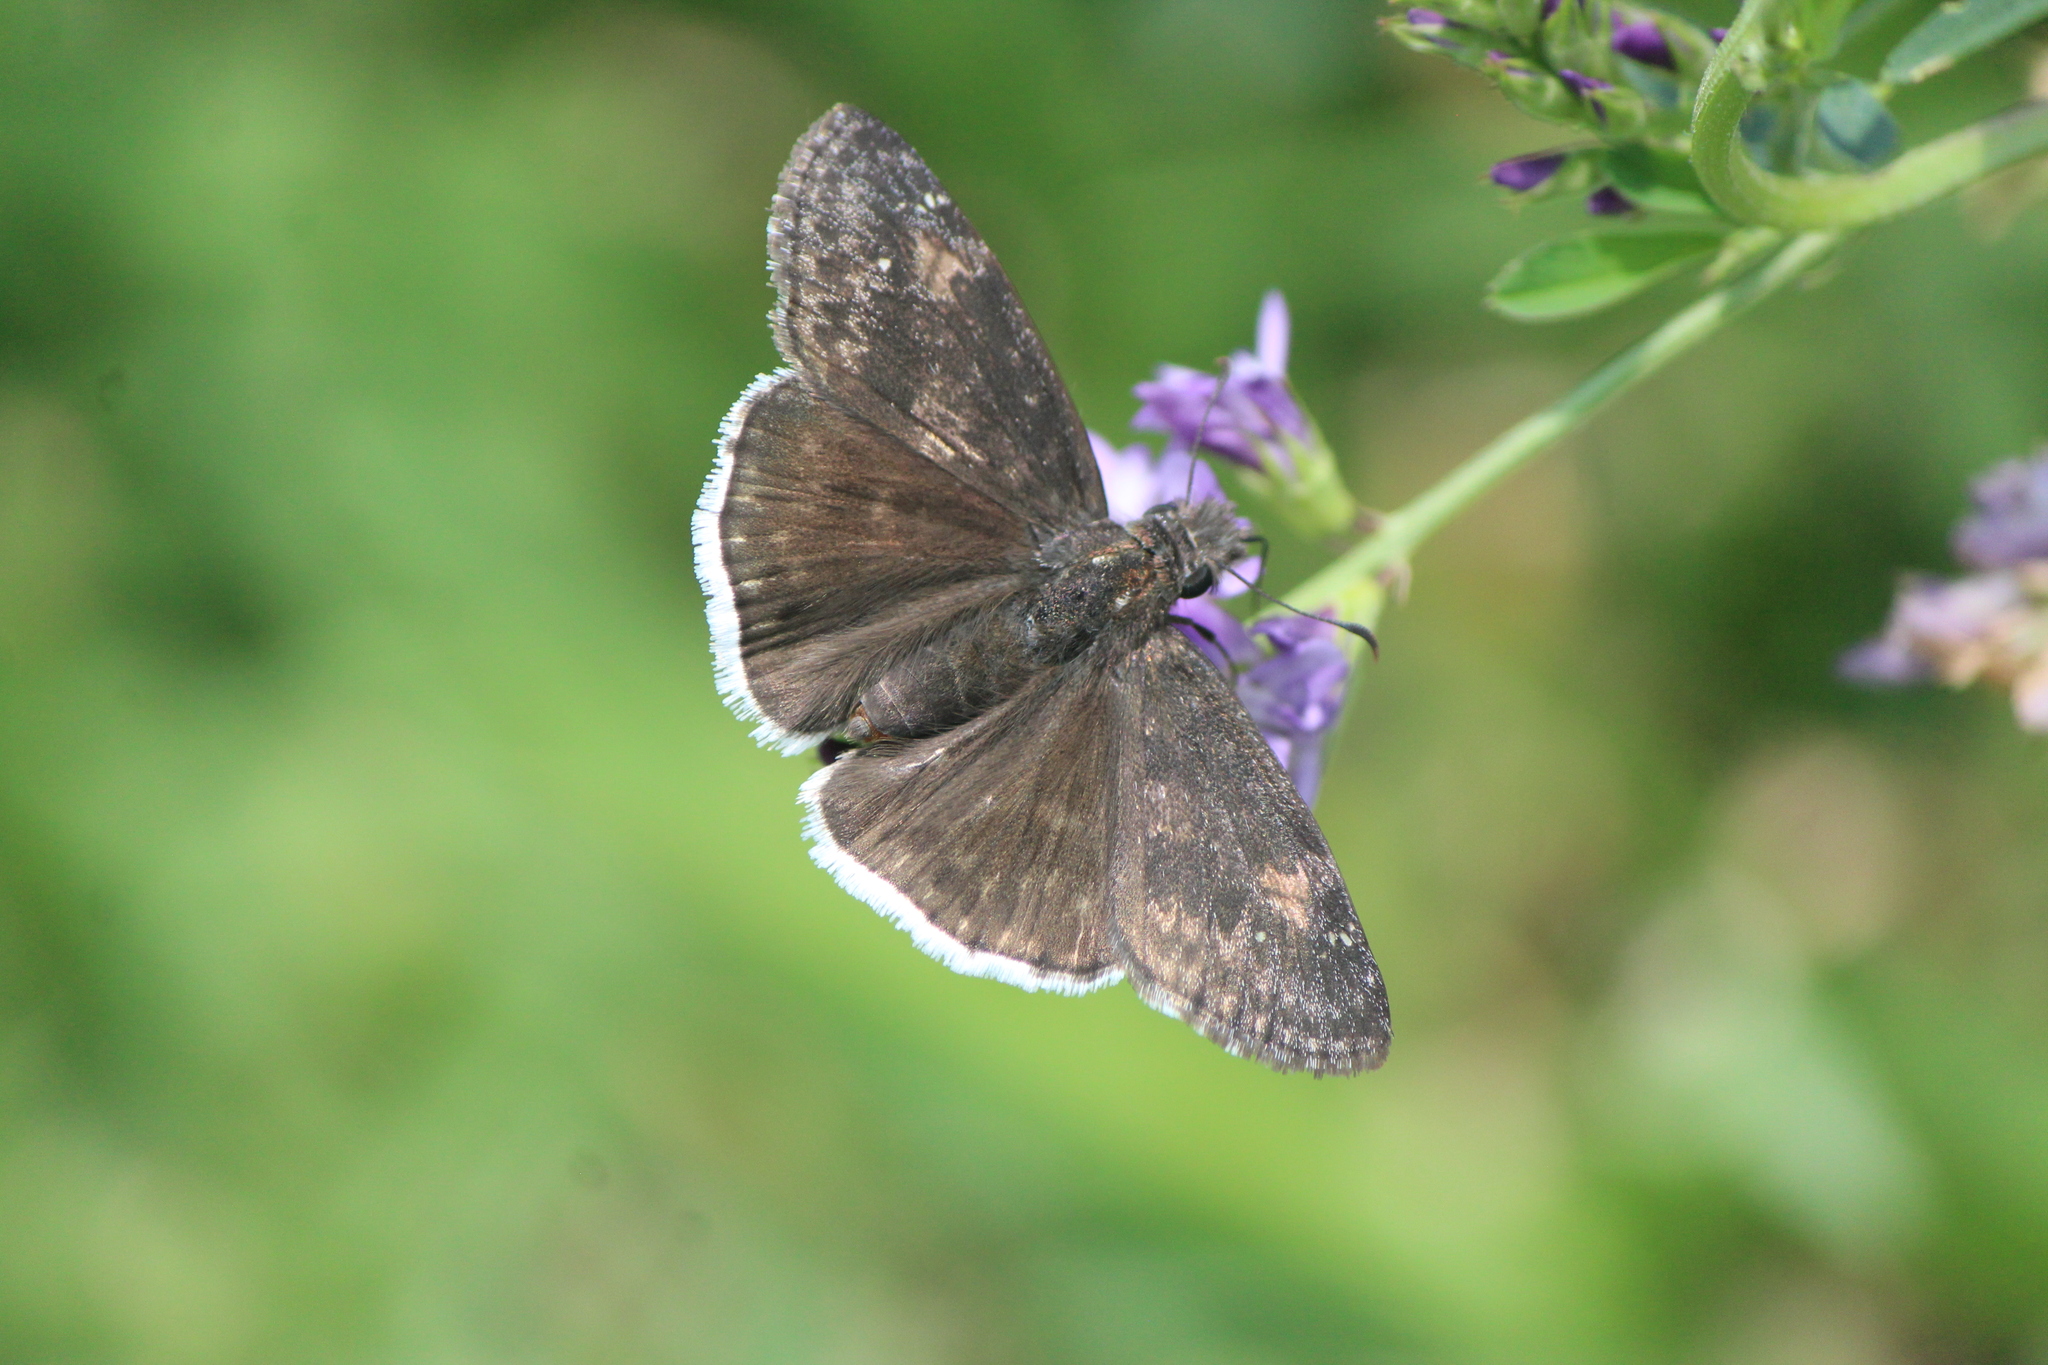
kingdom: Animalia
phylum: Arthropoda
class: Insecta
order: Lepidoptera
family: Hesperiidae
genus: Erynnis
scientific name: Erynnis funeralis
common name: Funereal duskywing
